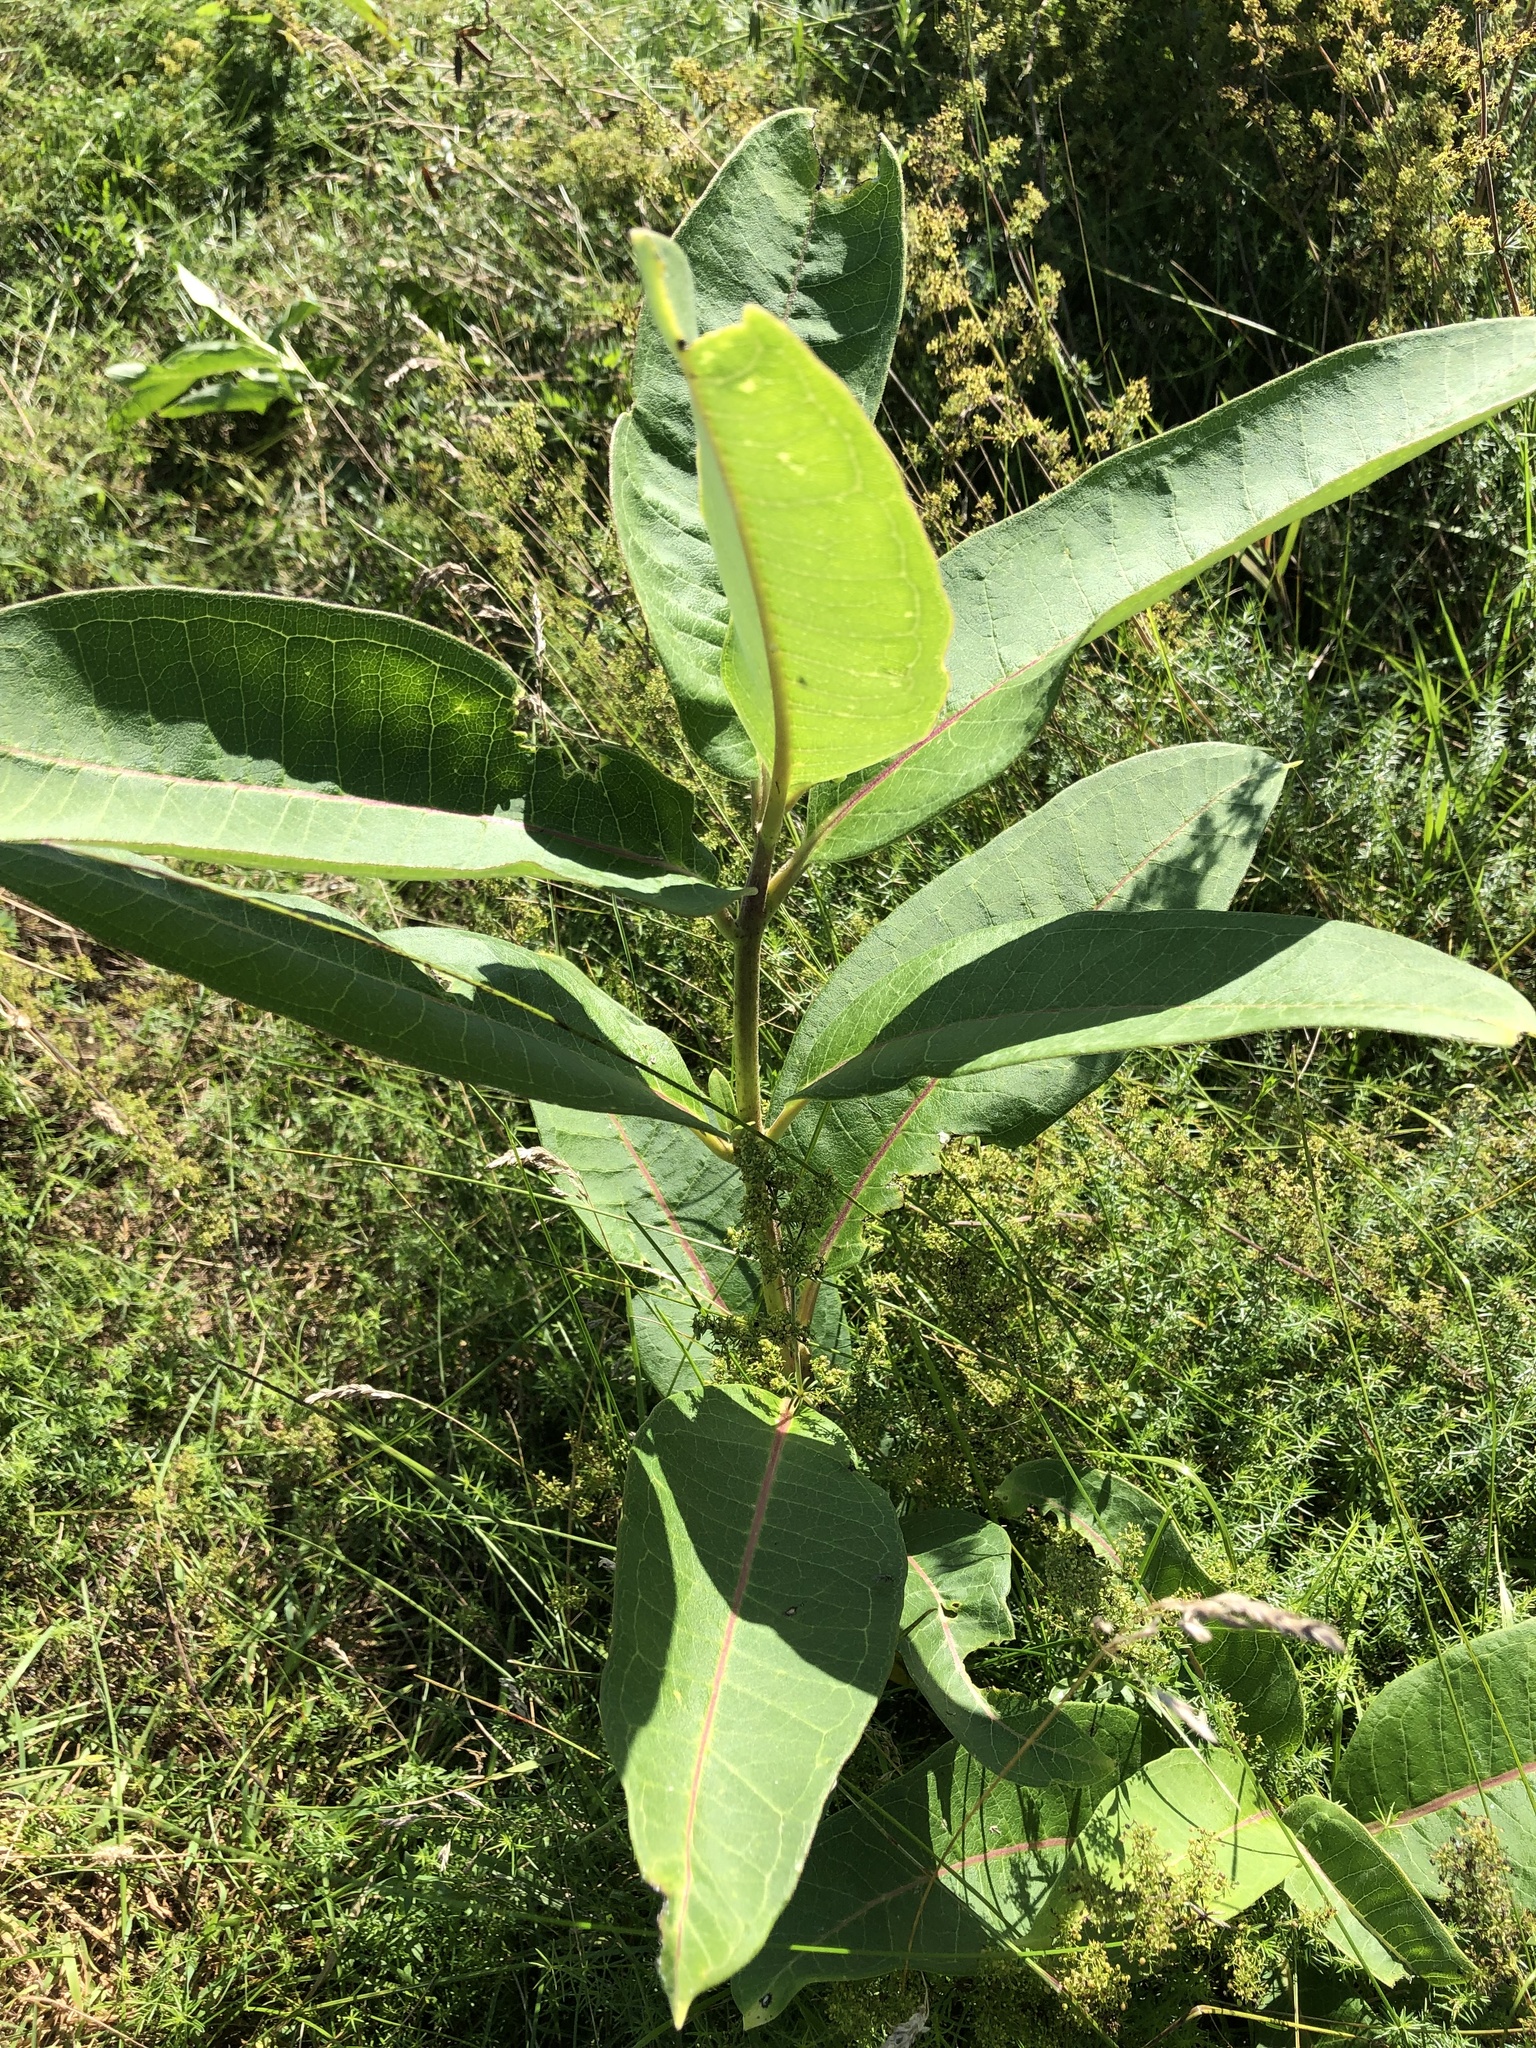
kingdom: Plantae
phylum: Tracheophyta
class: Magnoliopsida
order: Gentianales
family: Apocynaceae
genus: Asclepias
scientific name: Asclepias syriaca
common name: Common milkweed
